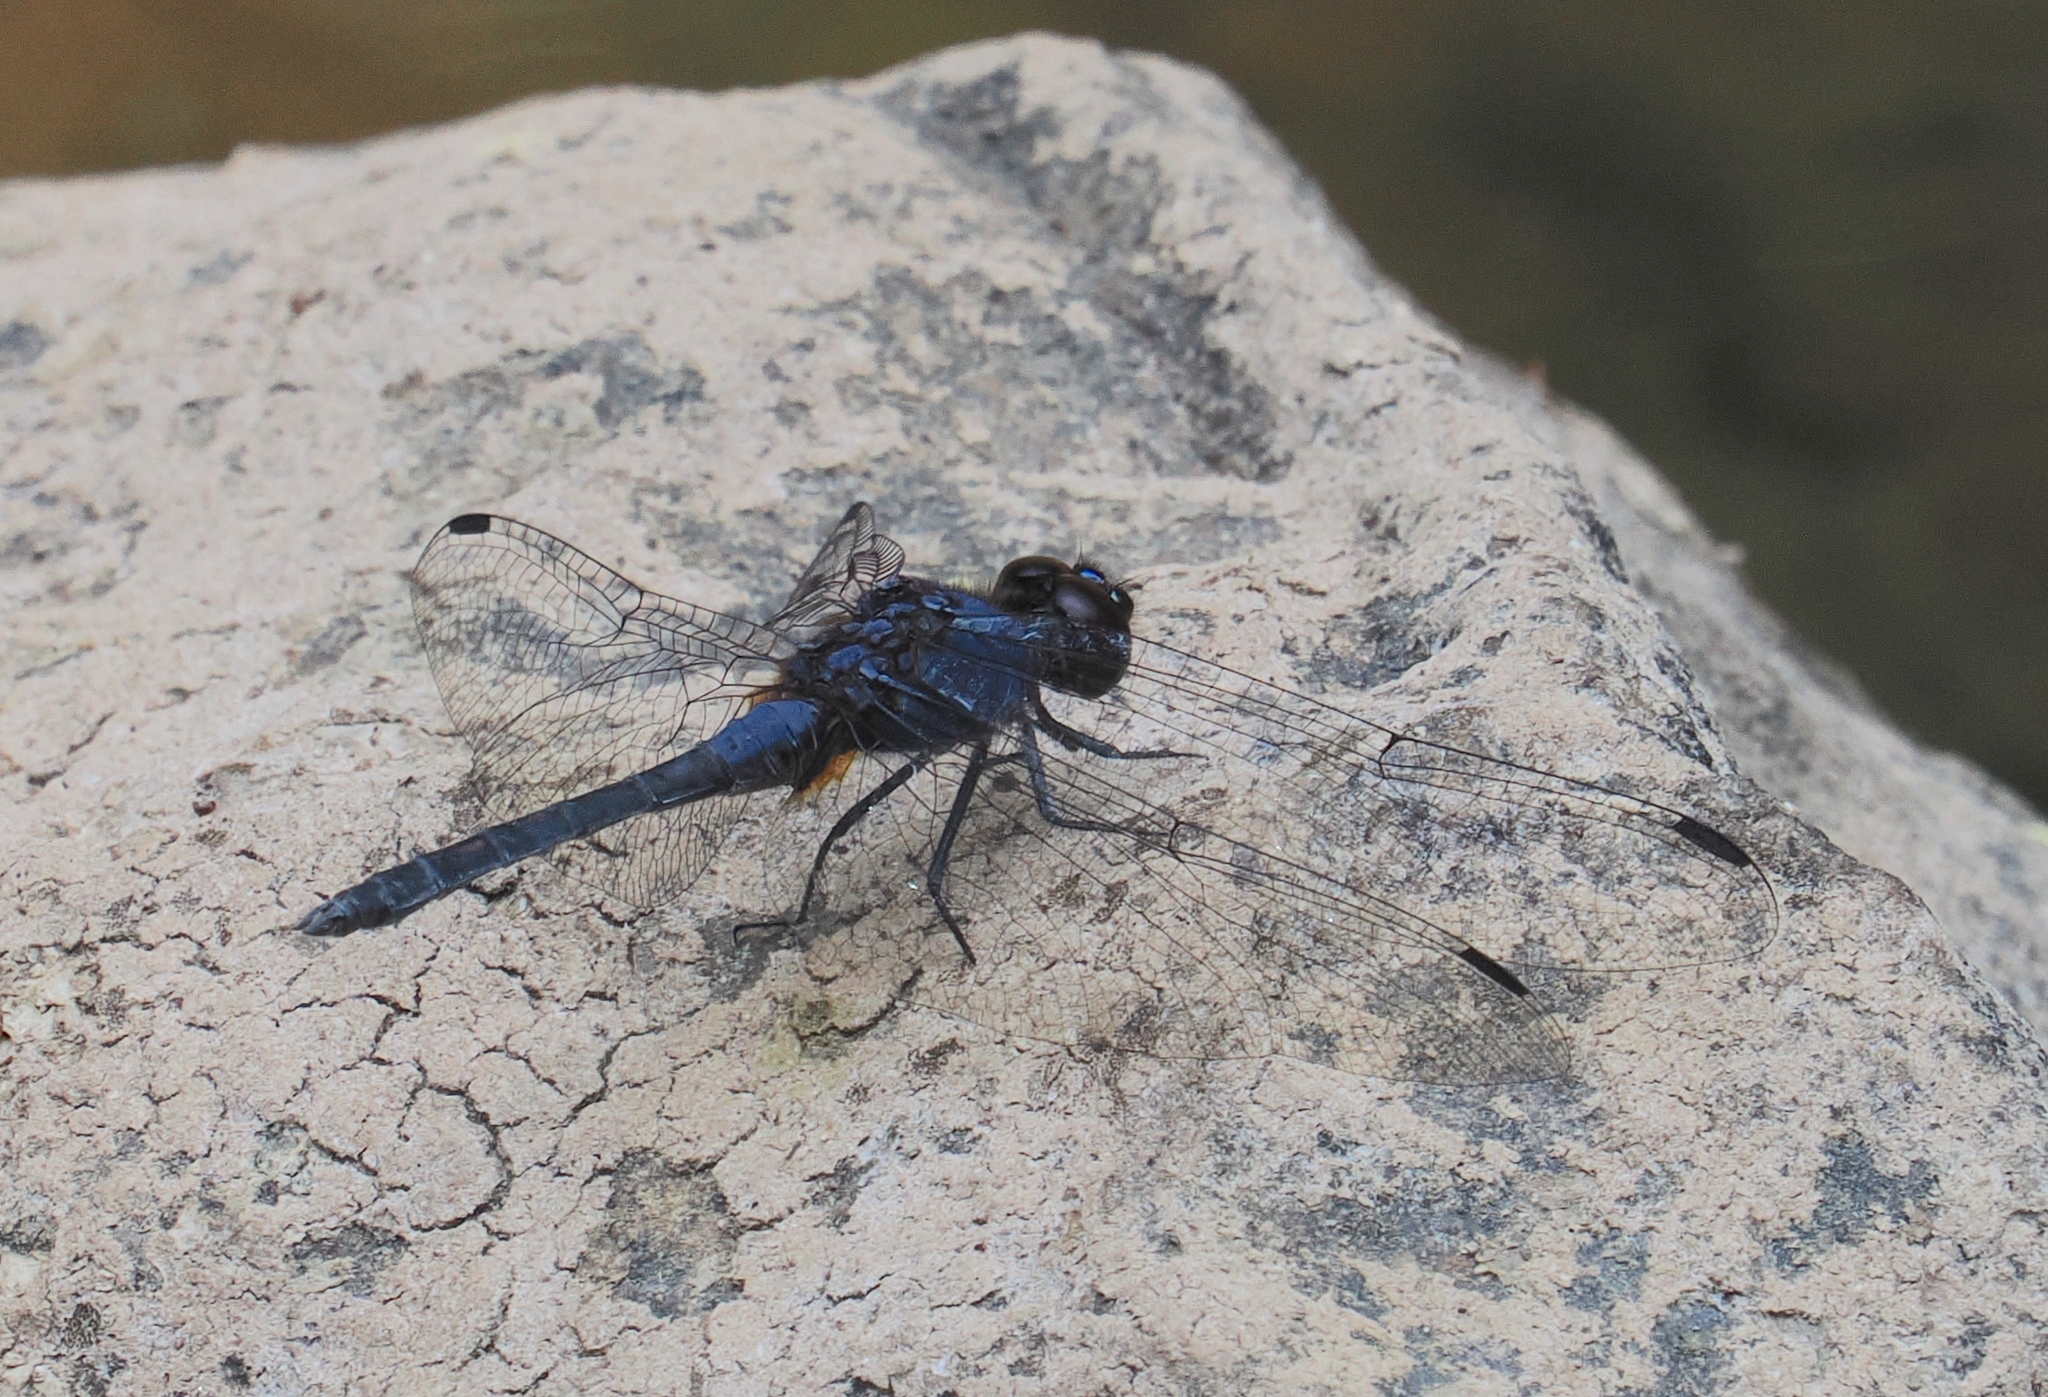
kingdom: Animalia
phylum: Arthropoda
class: Insecta
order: Odonata
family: Libellulidae
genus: Trithemis
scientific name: Trithemis festiva
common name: Indigo dropwing
